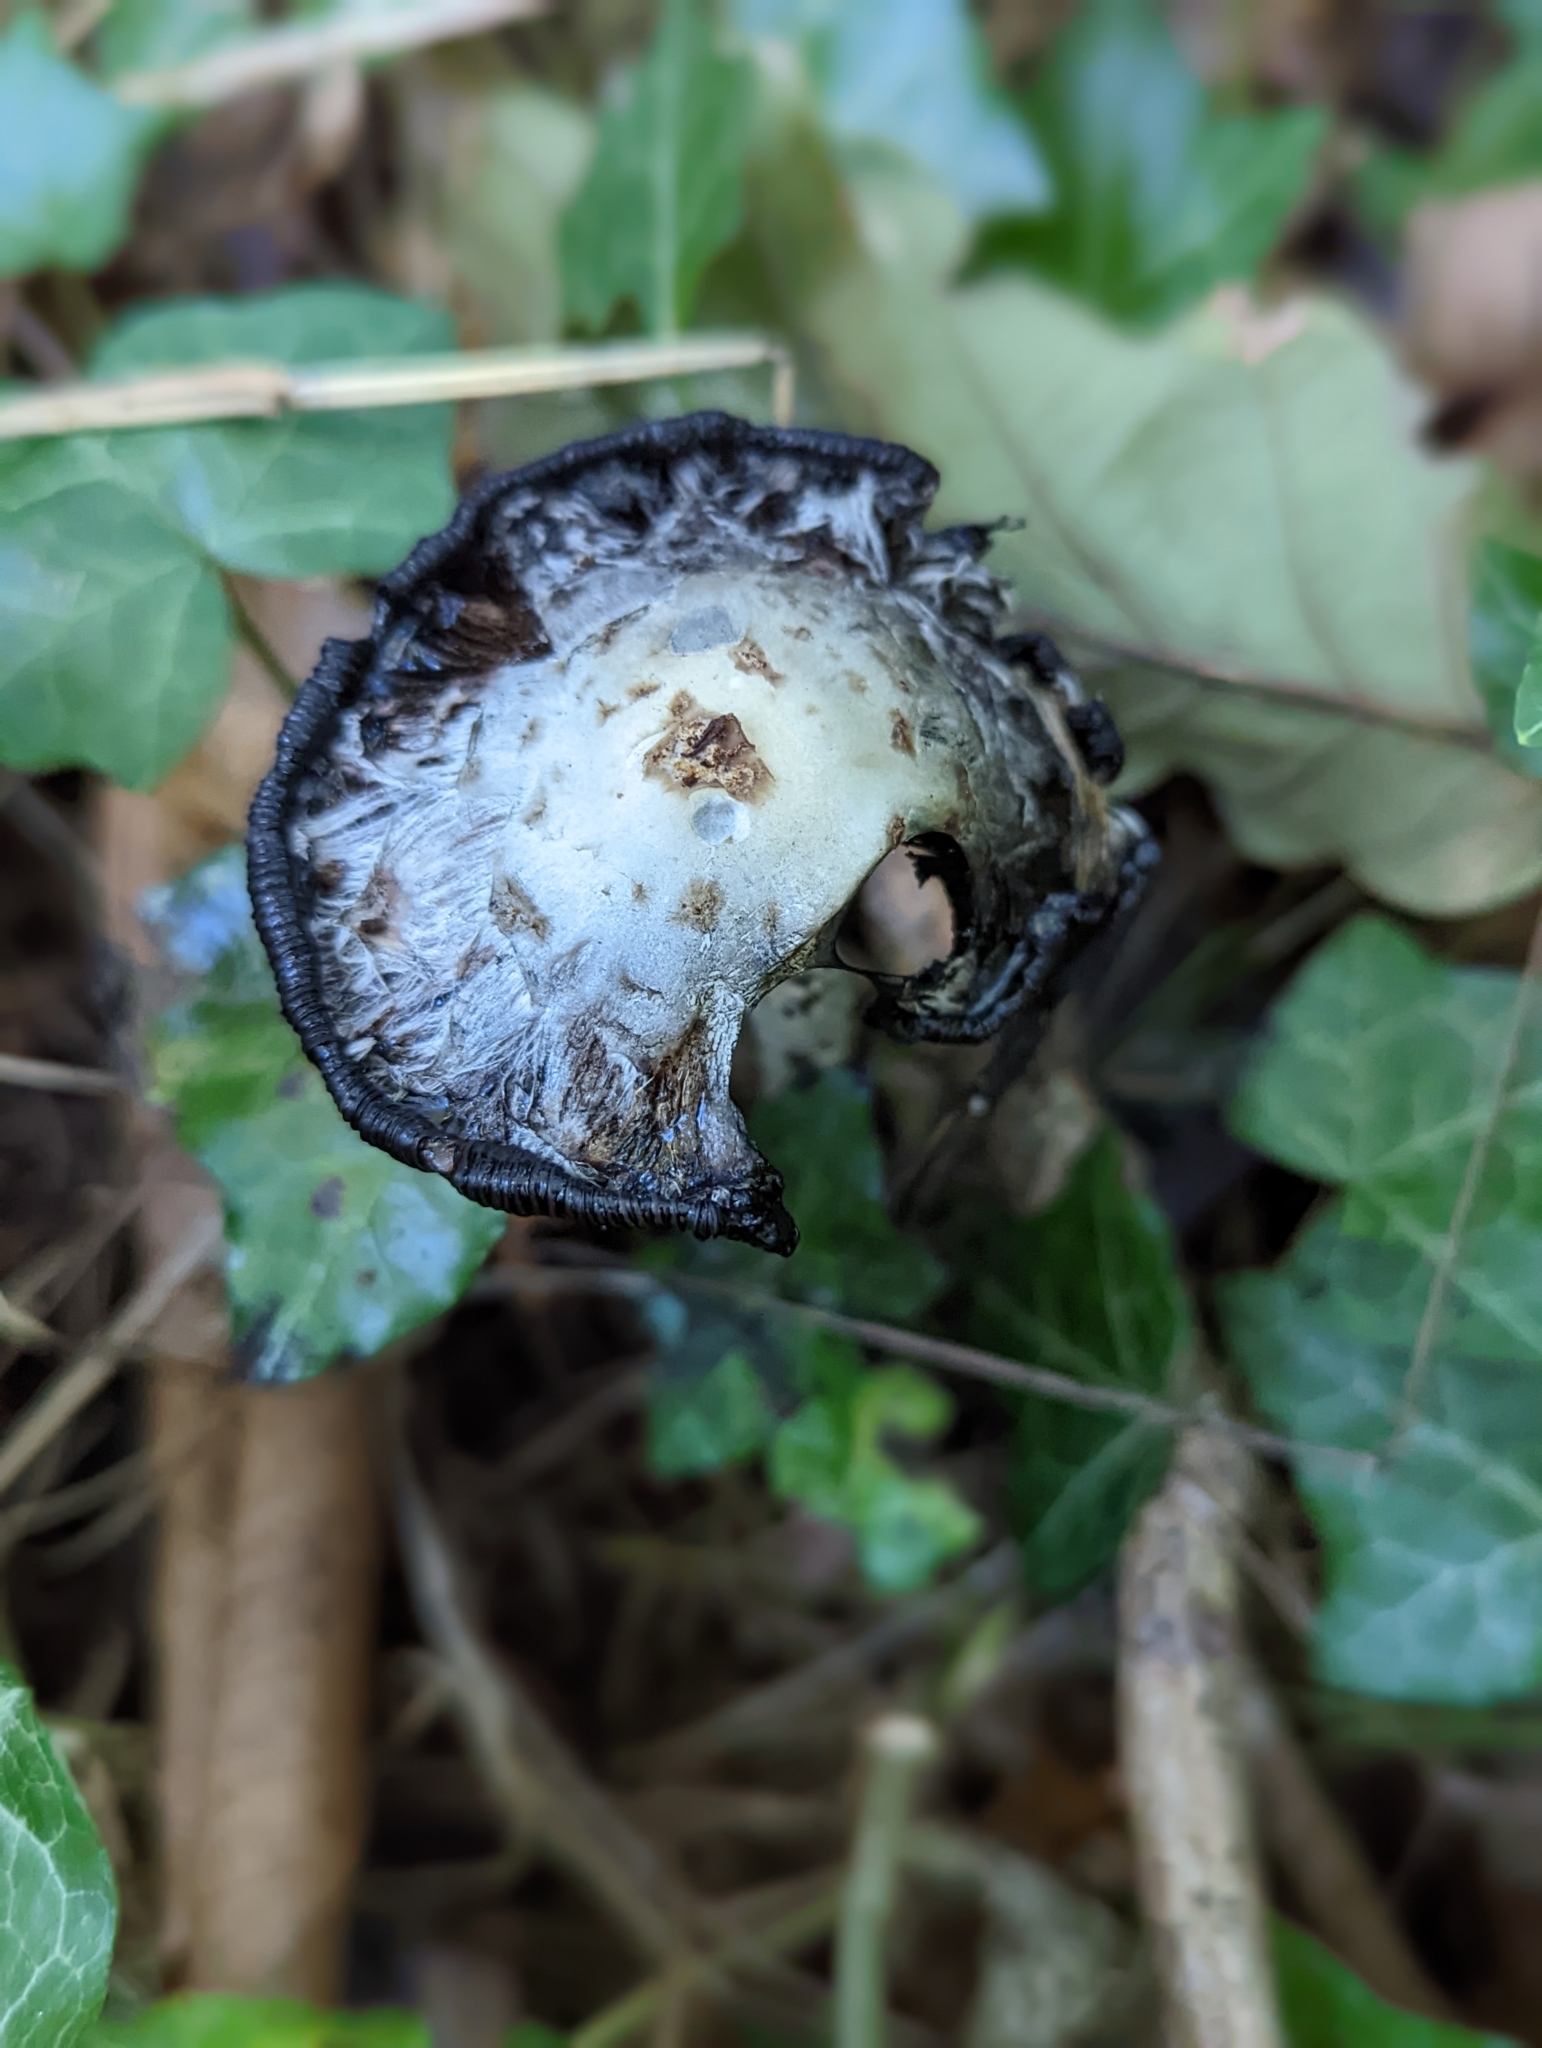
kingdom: Fungi
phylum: Basidiomycota
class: Agaricomycetes
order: Agaricales
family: Agaricaceae
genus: Coprinus
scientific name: Coprinus comatus
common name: Lawyer's wig
